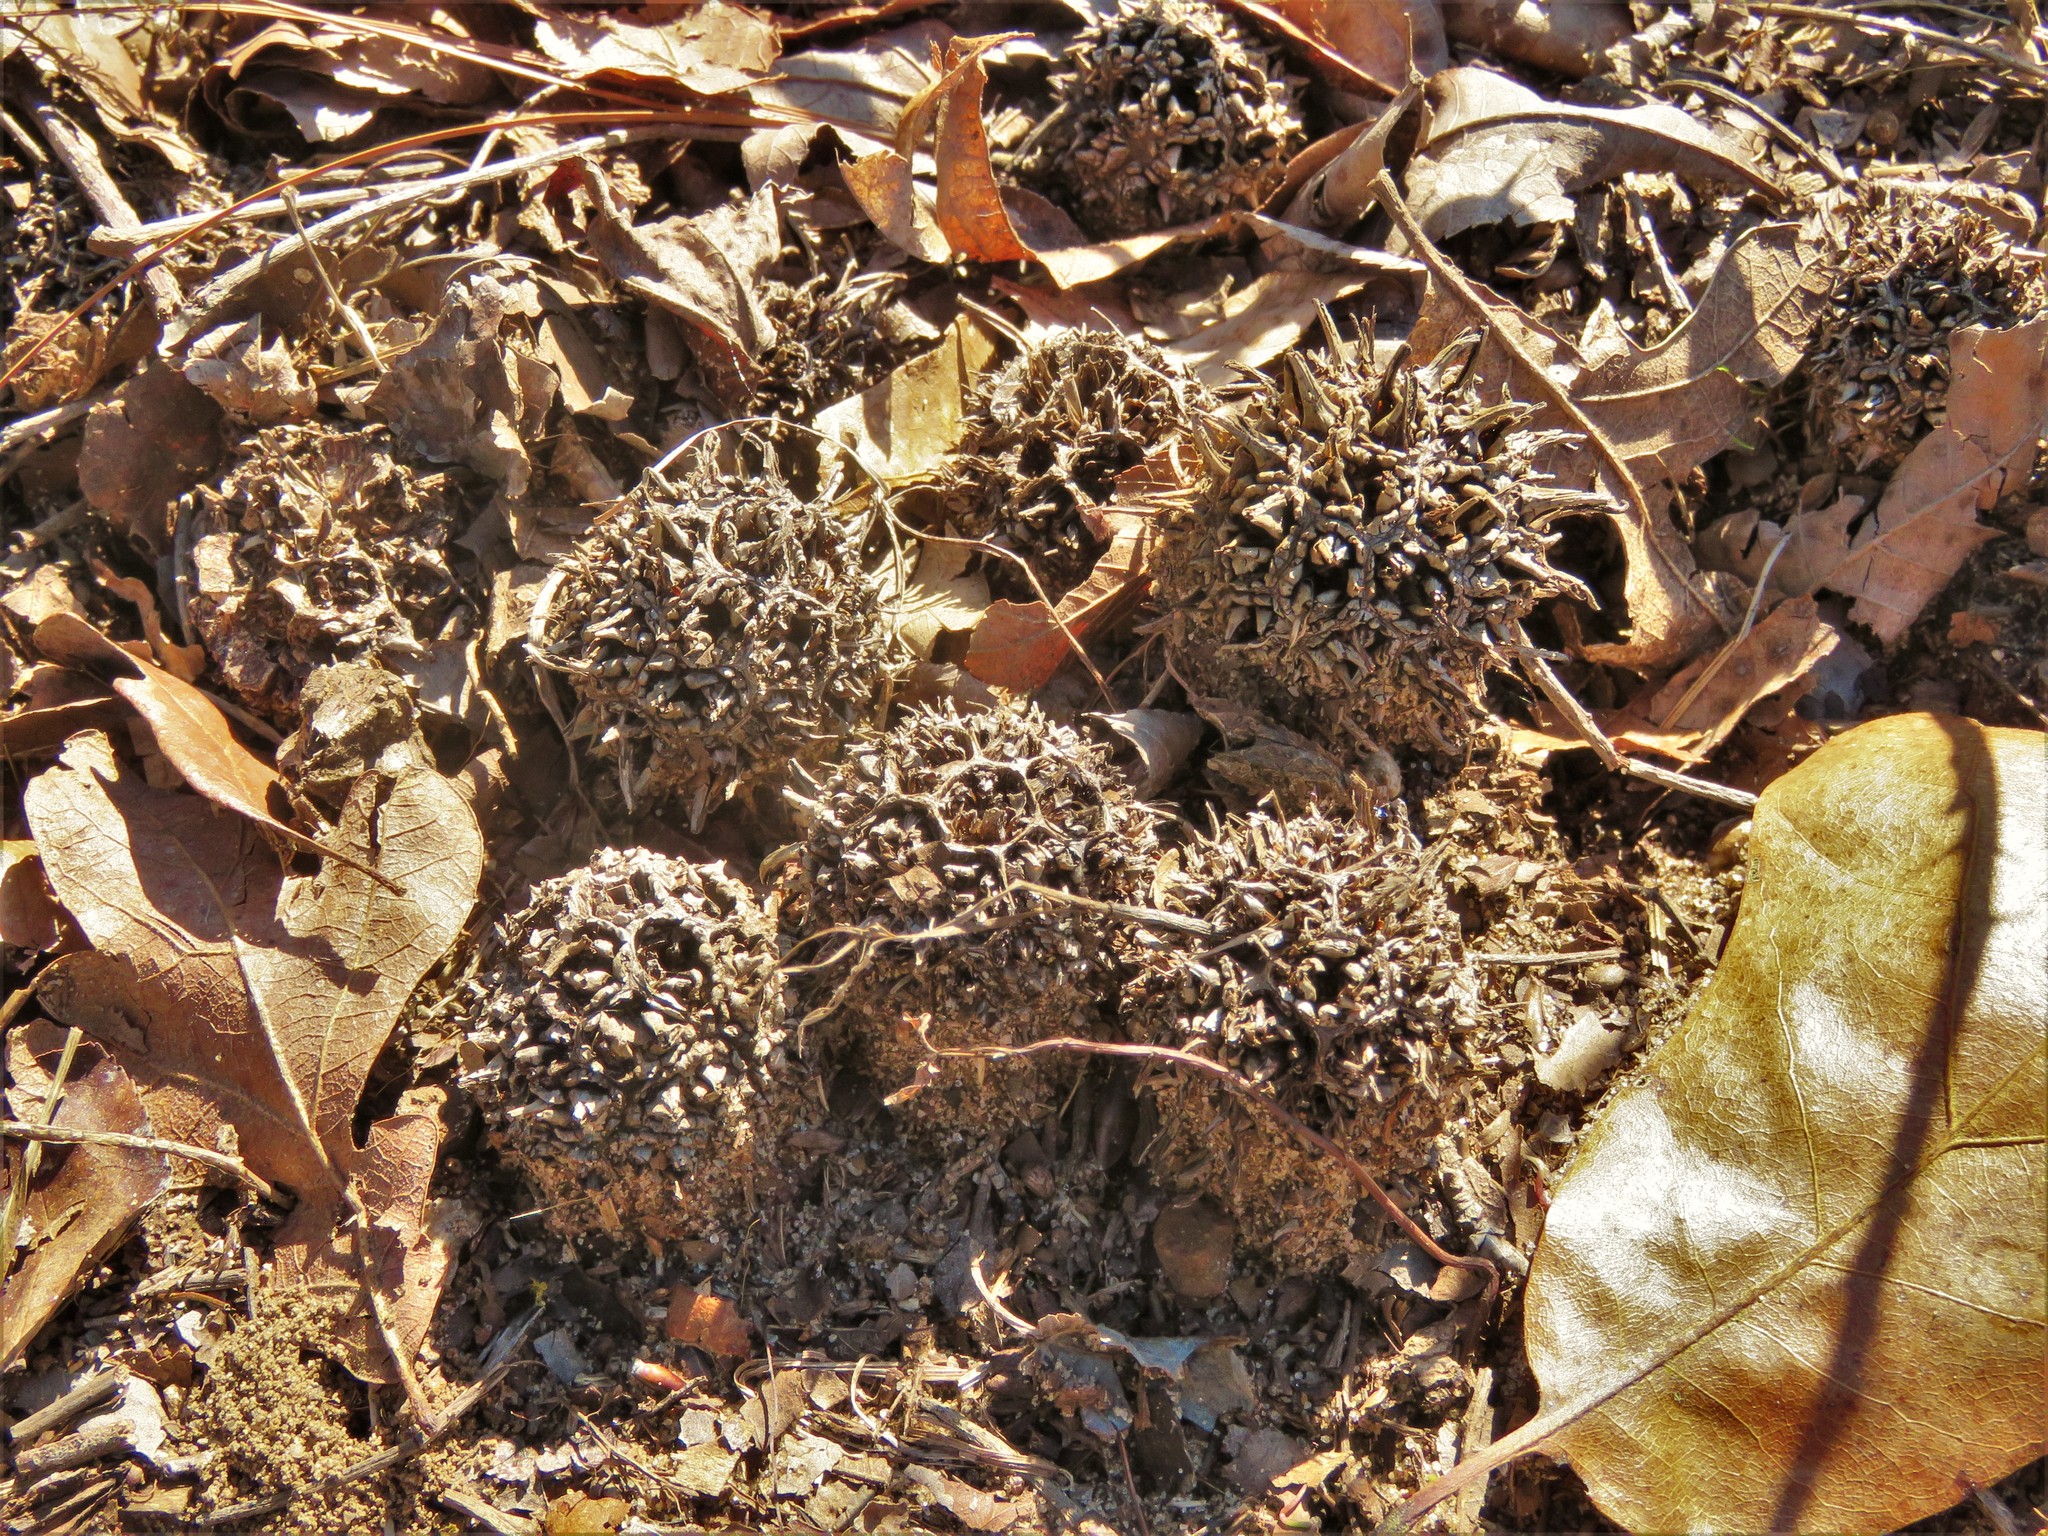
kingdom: Plantae
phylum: Tracheophyta
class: Magnoliopsida
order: Saxifragales
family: Altingiaceae
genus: Liquidambar
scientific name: Liquidambar styraciflua
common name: Sweet gum
